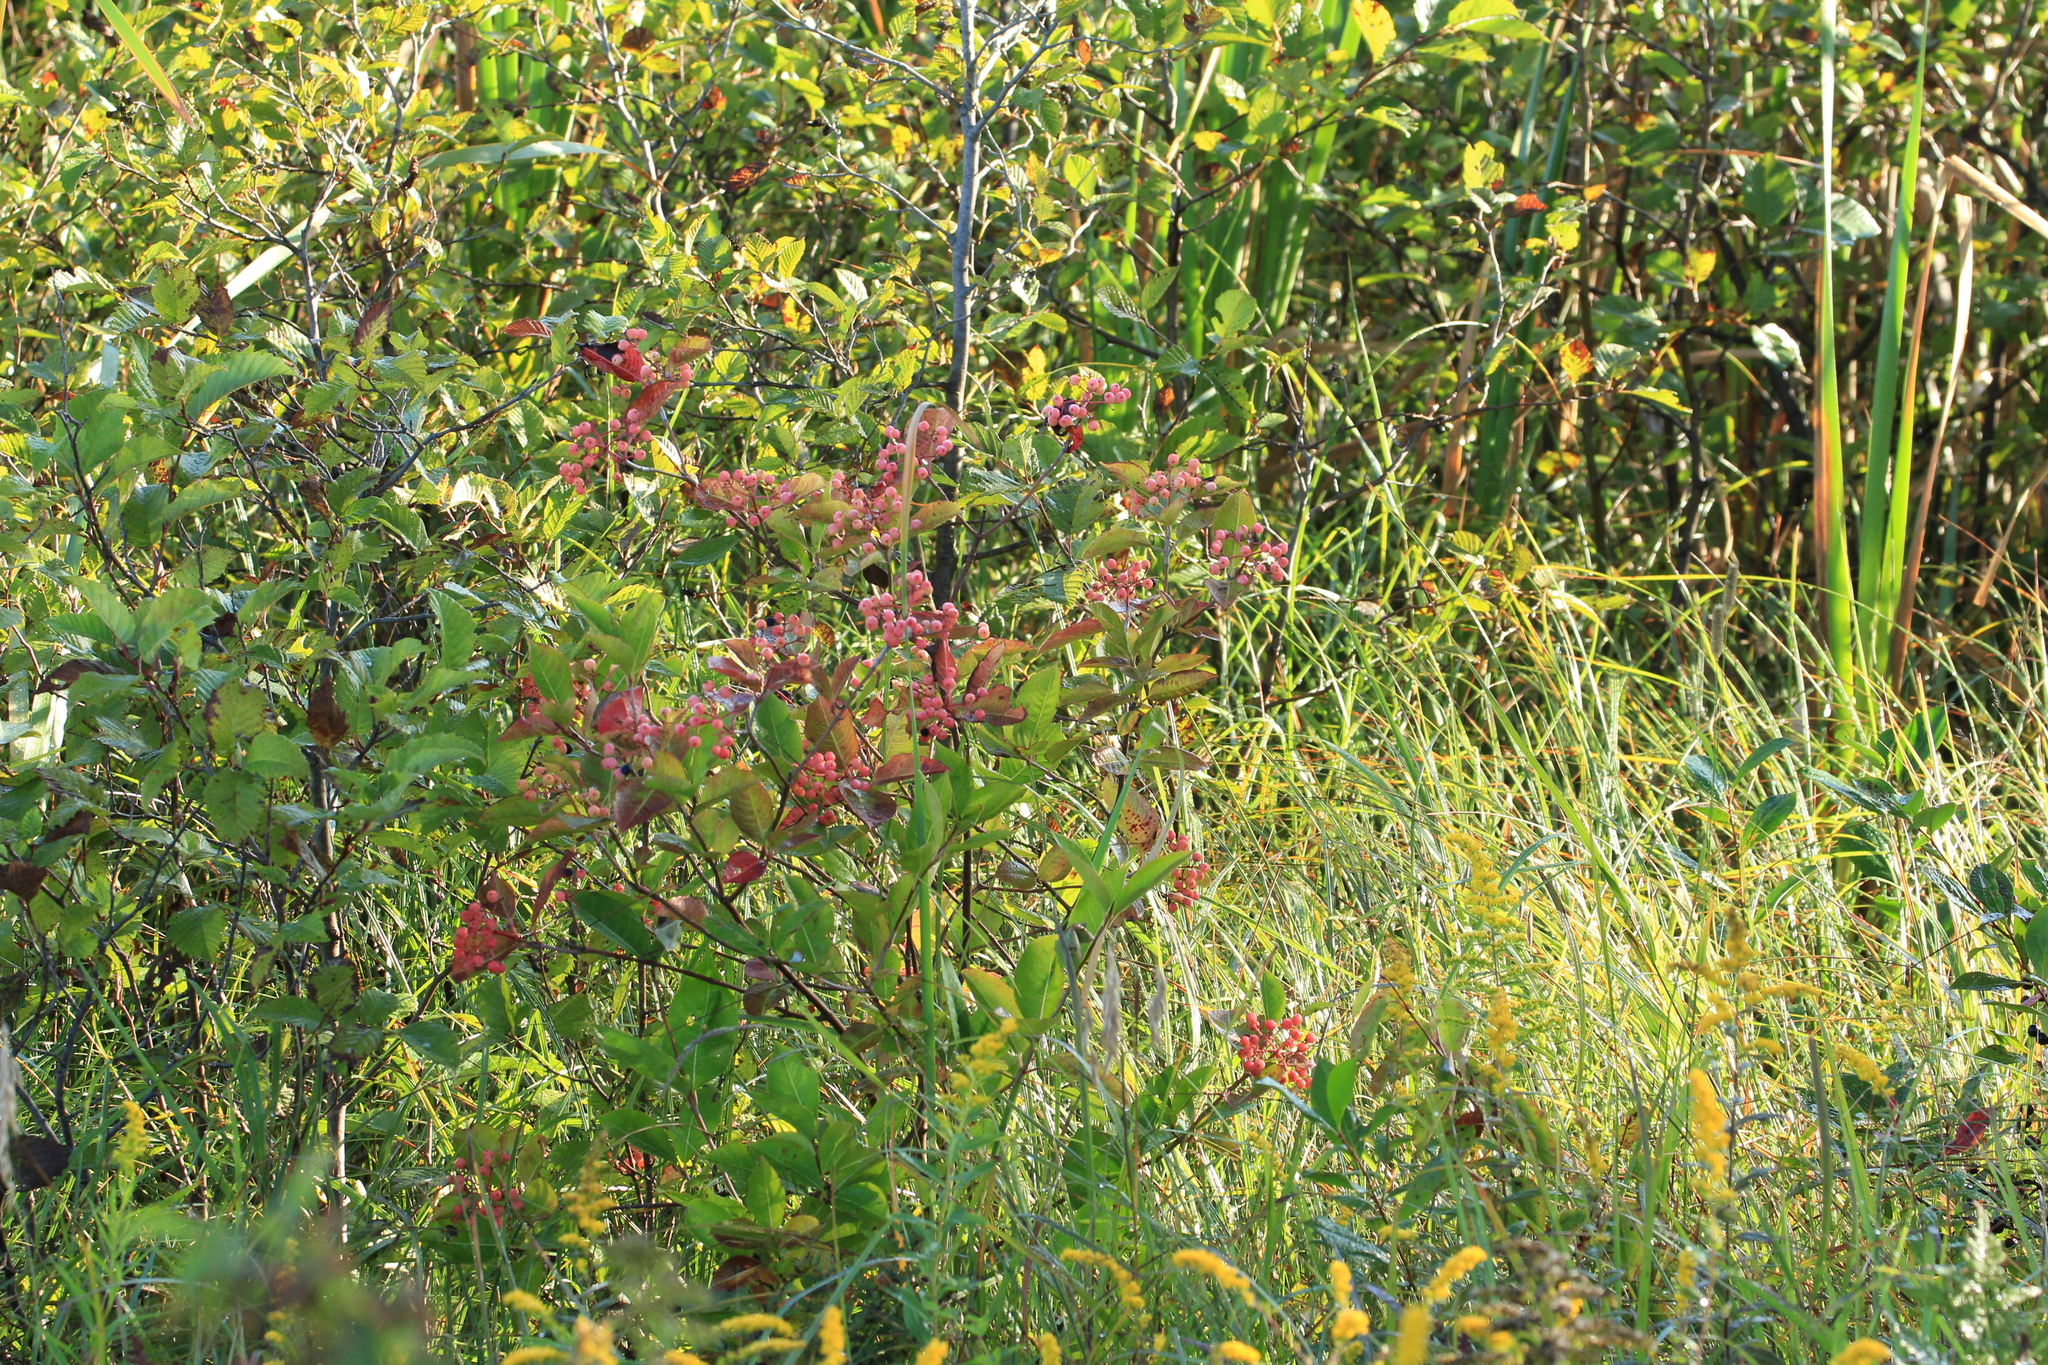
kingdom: Plantae
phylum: Tracheophyta
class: Magnoliopsida
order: Dipsacales
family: Viburnaceae
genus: Viburnum
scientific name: Viburnum cassinoides
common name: Swamp haw
